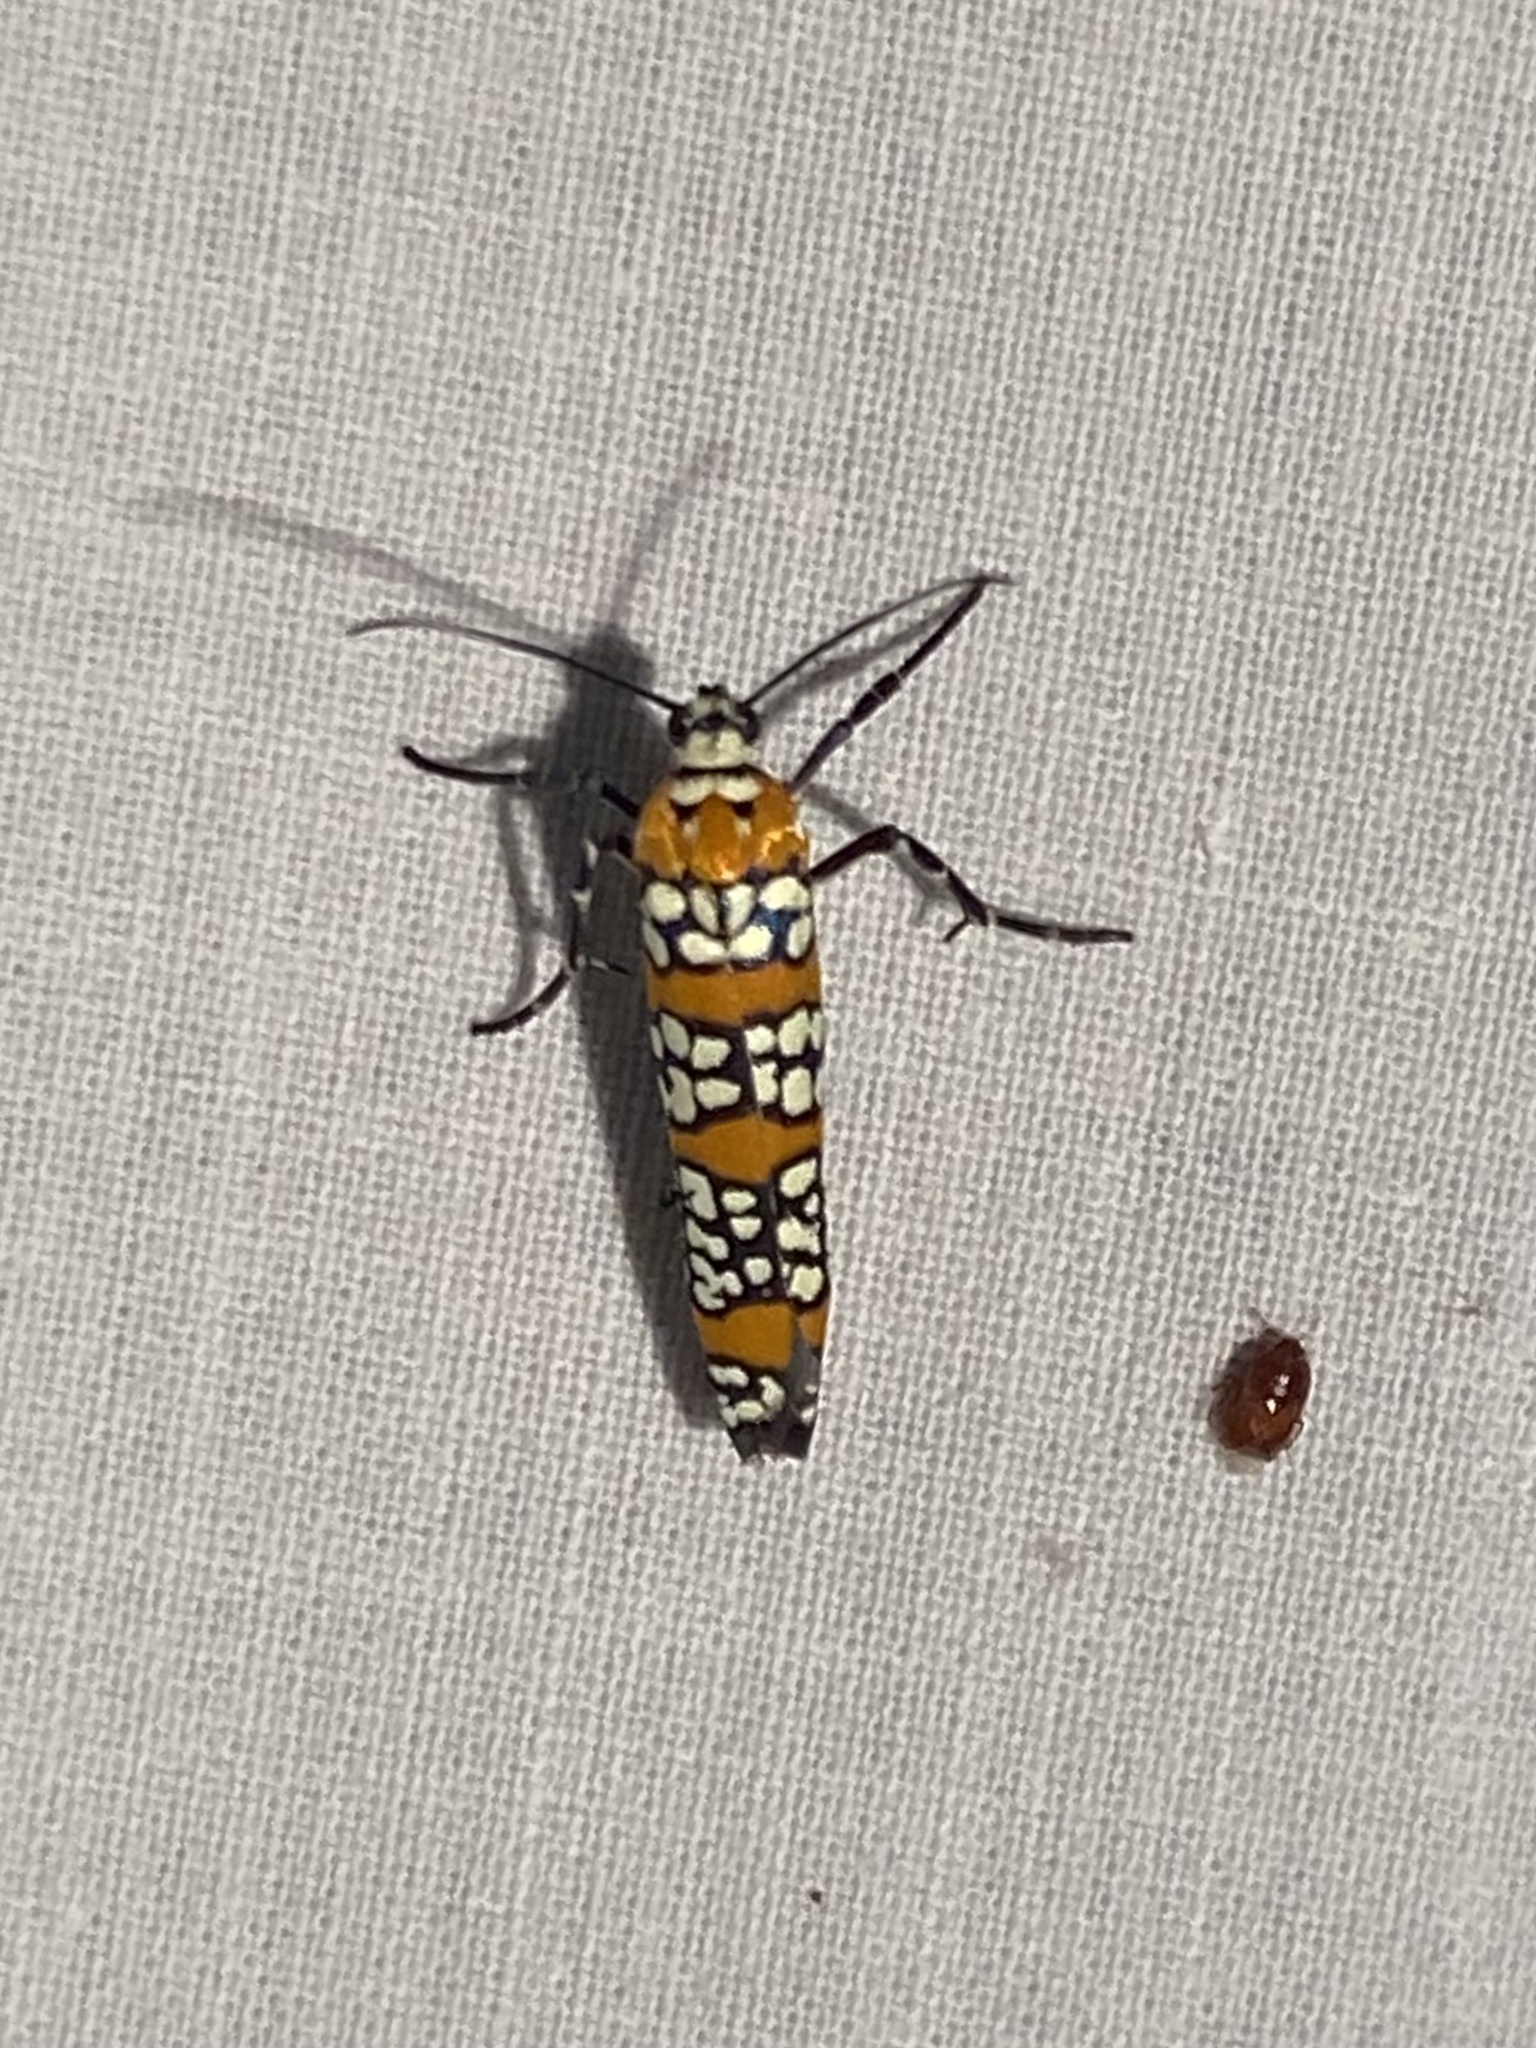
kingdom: Animalia
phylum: Arthropoda
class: Insecta
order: Lepidoptera
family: Attevidae
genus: Atteva
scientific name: Atteva punctella
